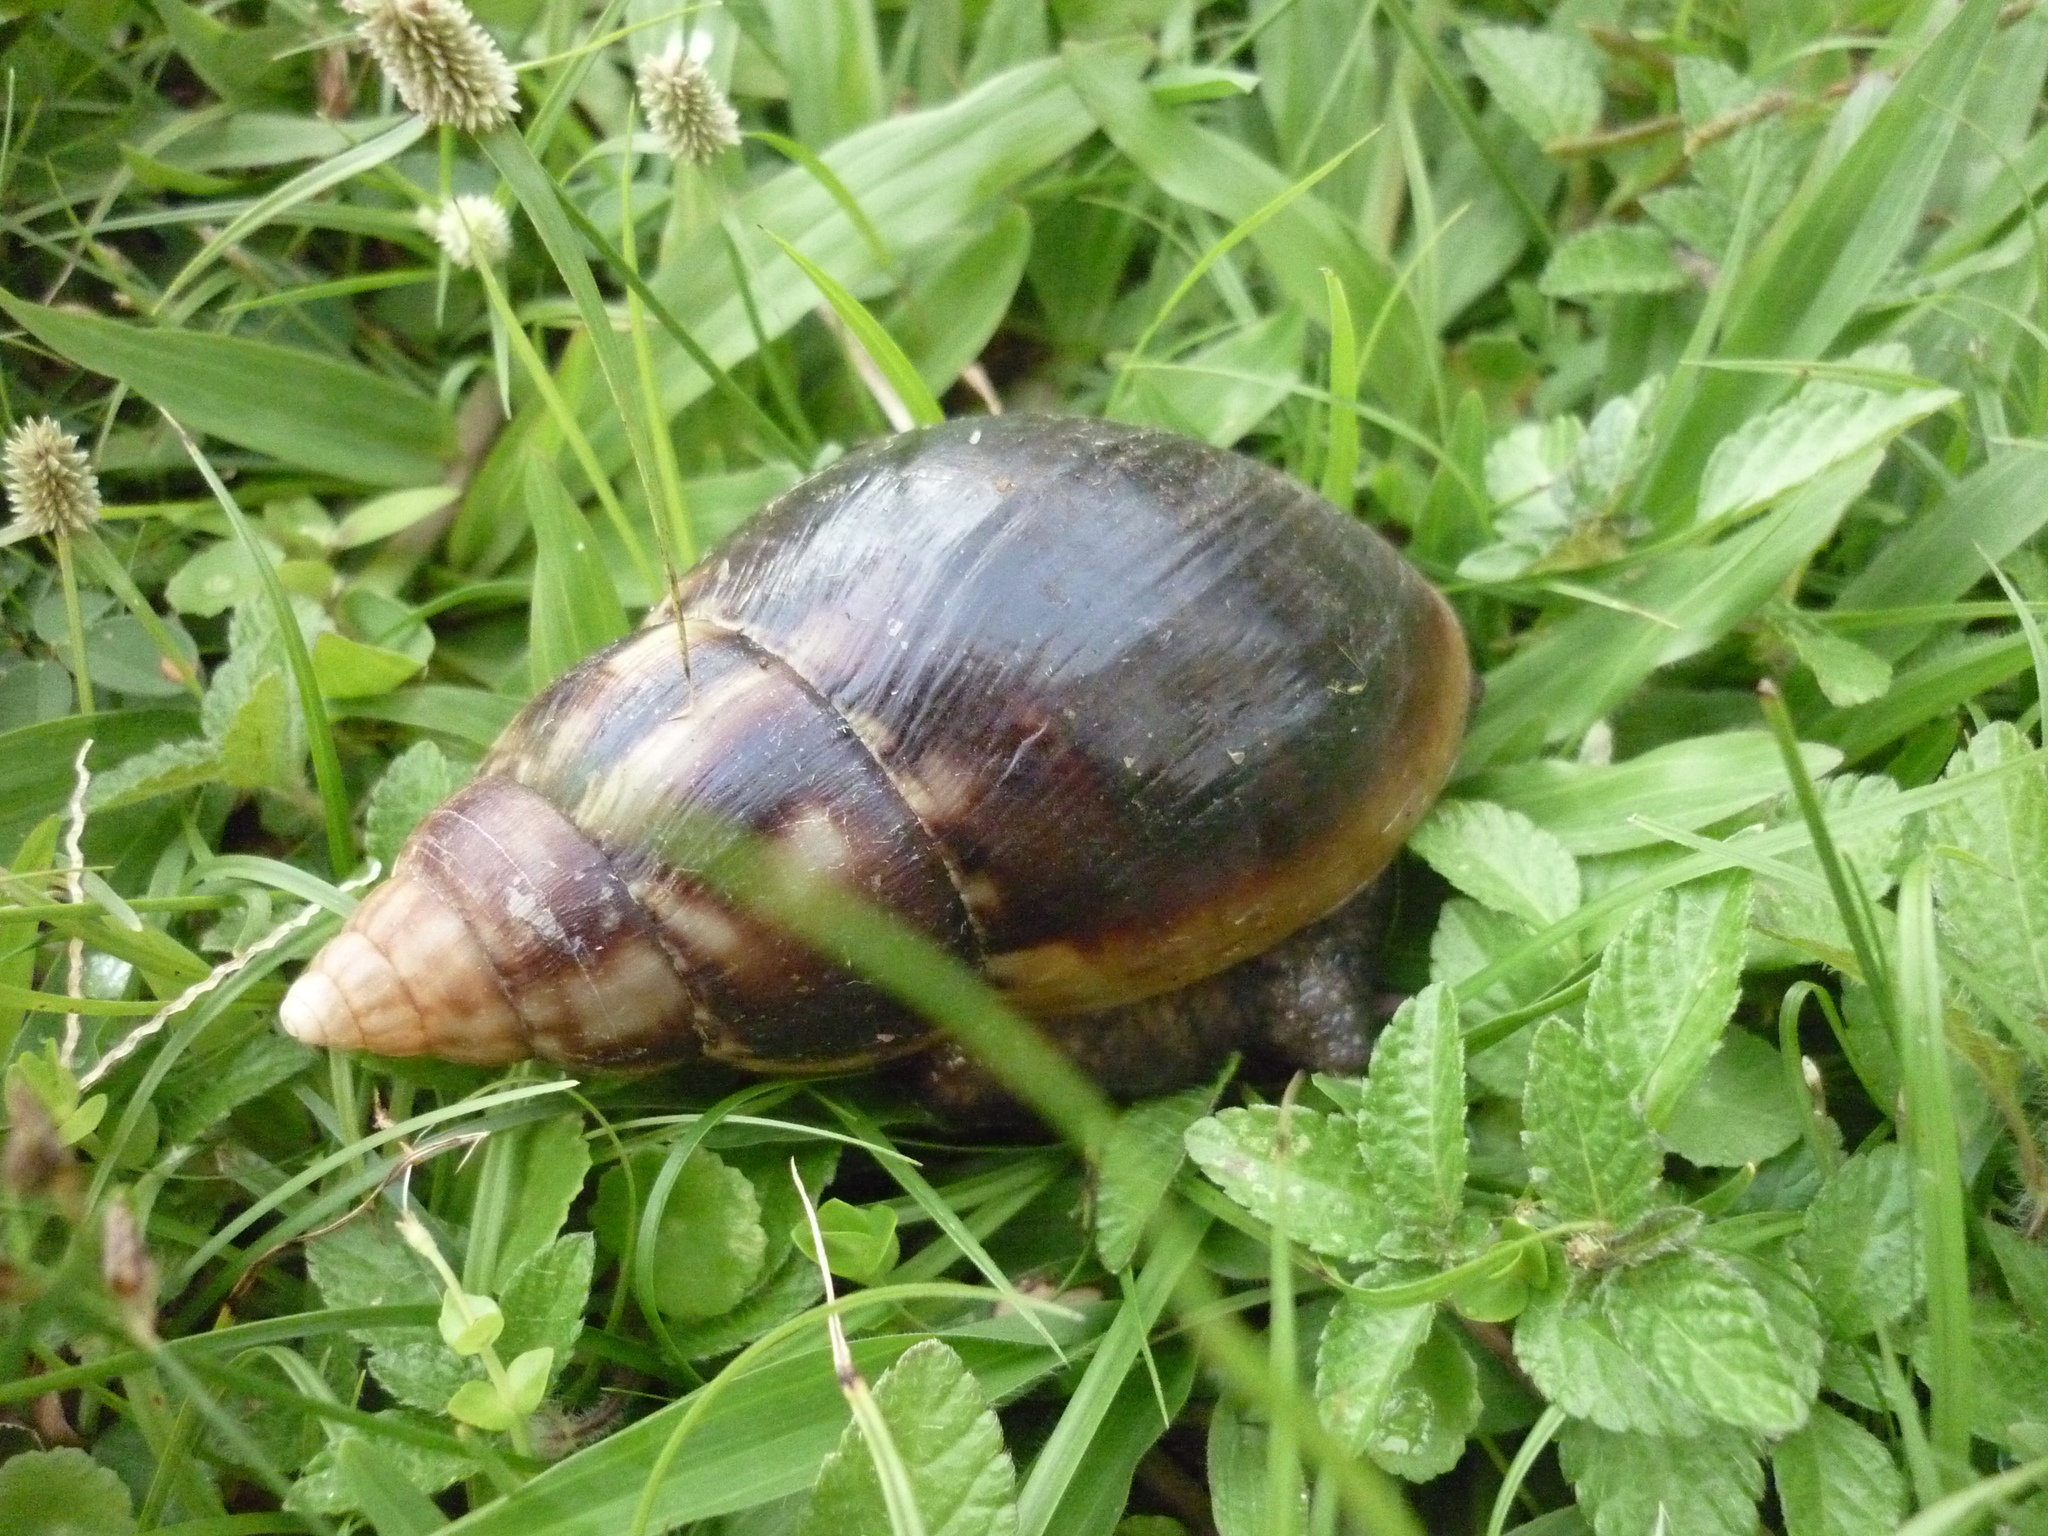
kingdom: Animalia
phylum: Mollusca
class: Gastropoda
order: Stylommatophora
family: Achatinidae
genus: Lissachatina
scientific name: Lissachatina fulica
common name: Giant african snail
